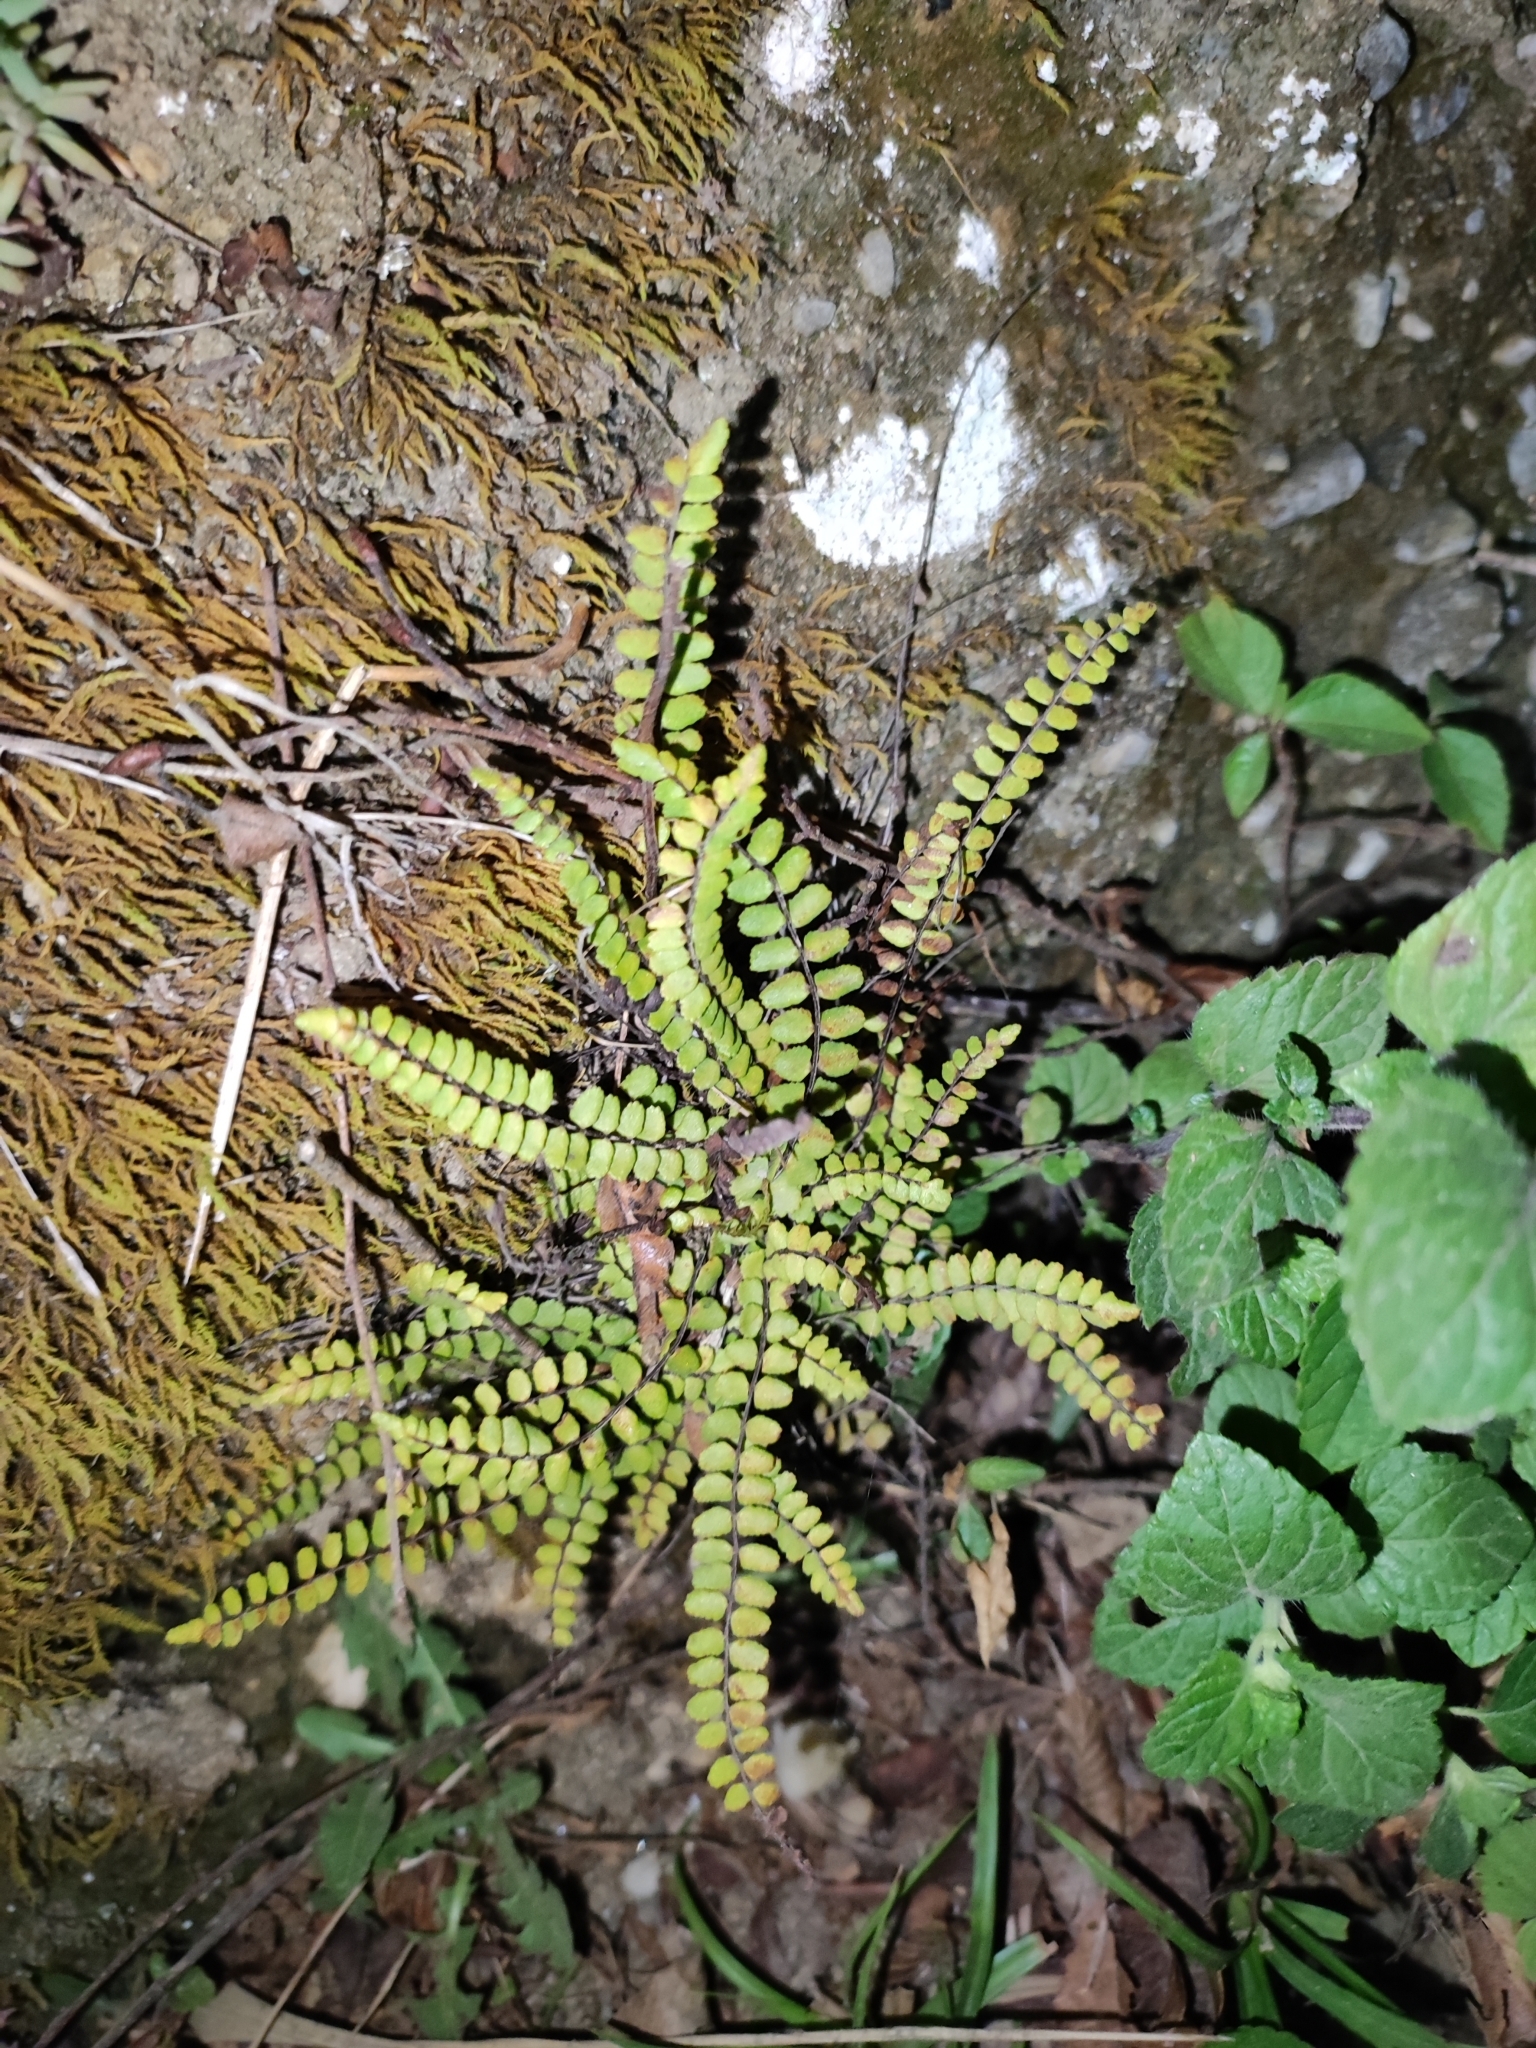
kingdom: Plantae
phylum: Tracheophyta
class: Polypodiopsida
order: Polypodiales
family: Aspleniaceae
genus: Asplenium
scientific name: Asplenium trichomanes
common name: Maidenhair spleenwort
